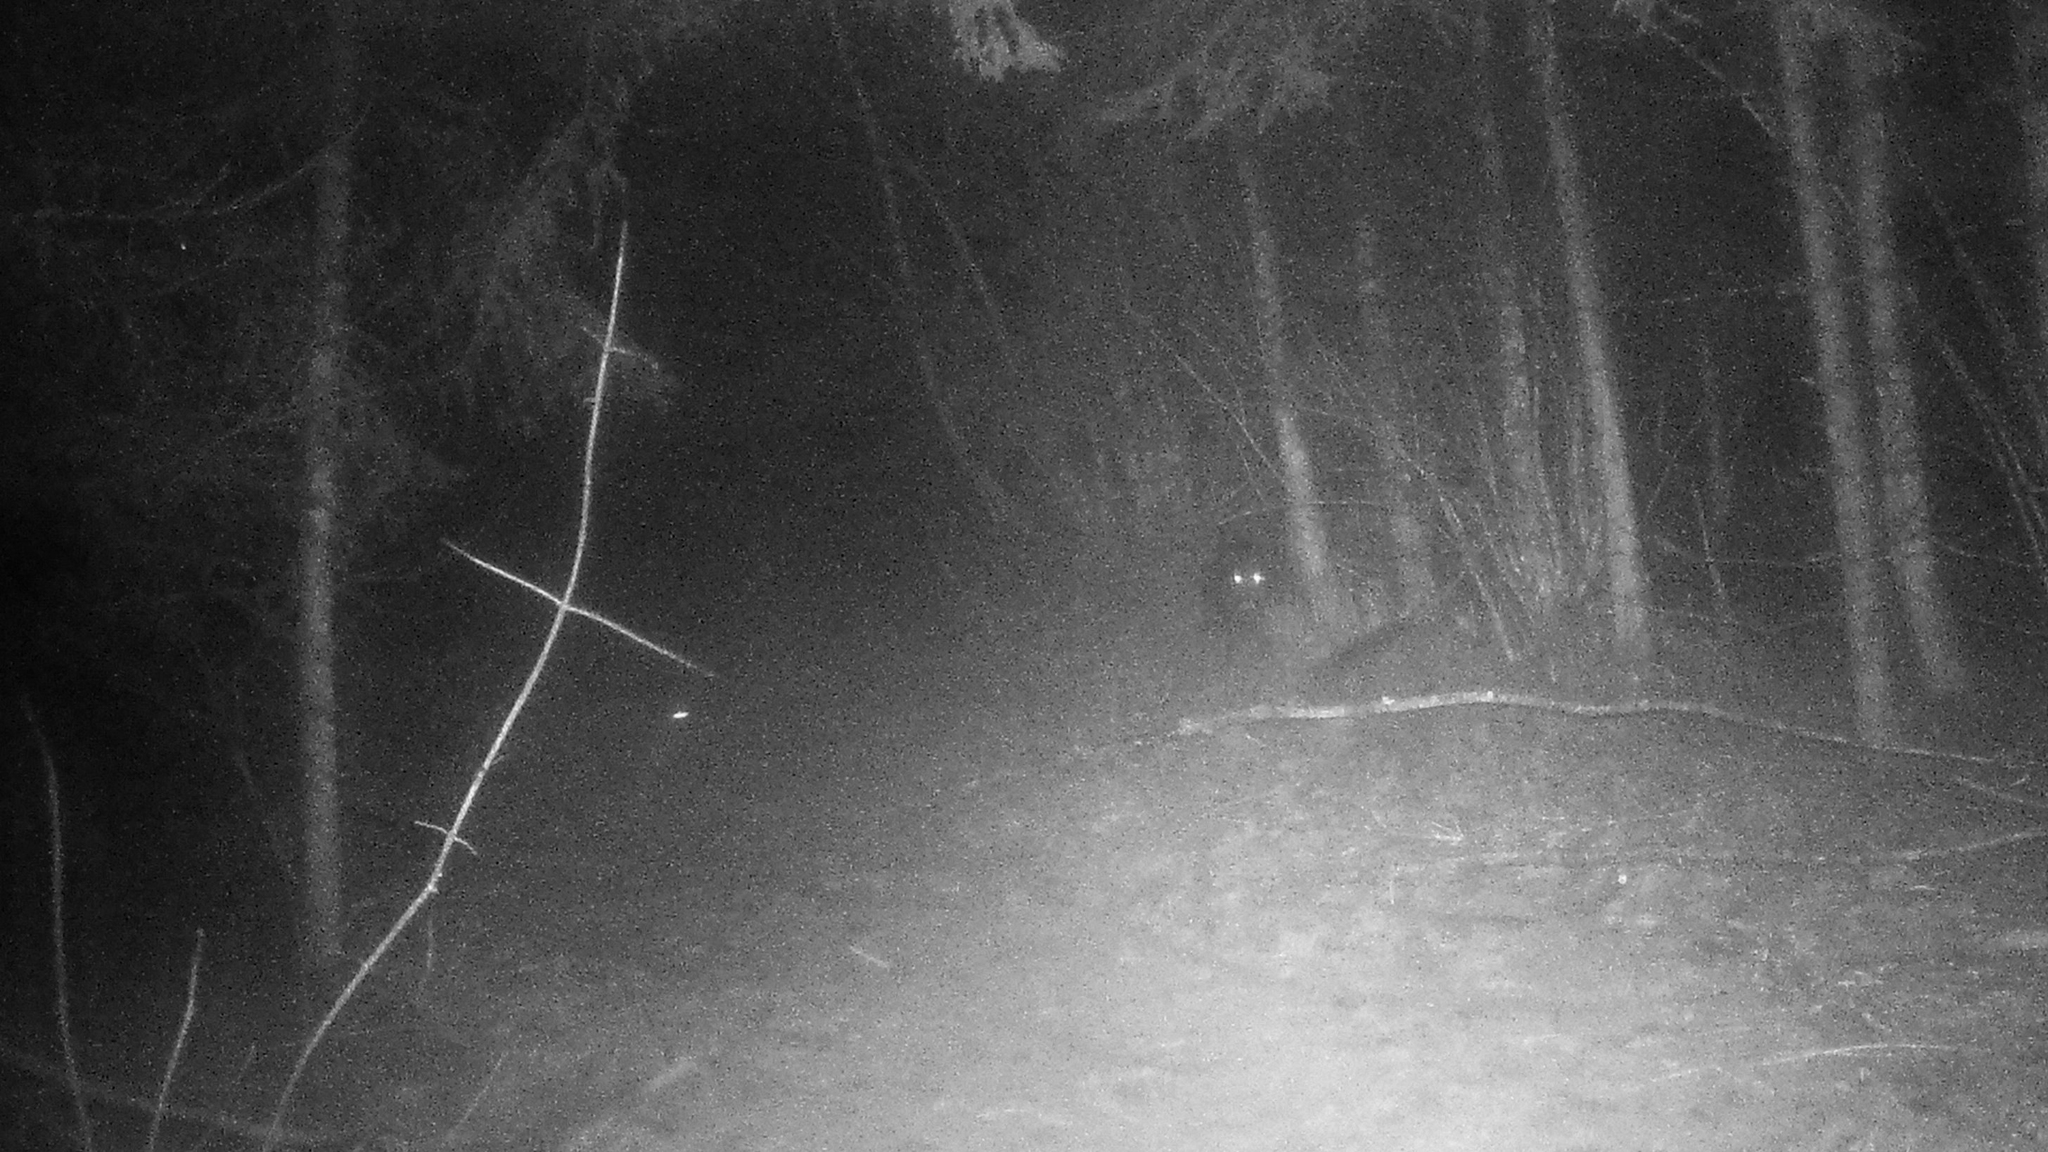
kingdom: Animalia
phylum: Chordata
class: Mammalia
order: Artiodactyla
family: Suidae
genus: Sus
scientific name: Sus scrofa
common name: Wild boar
